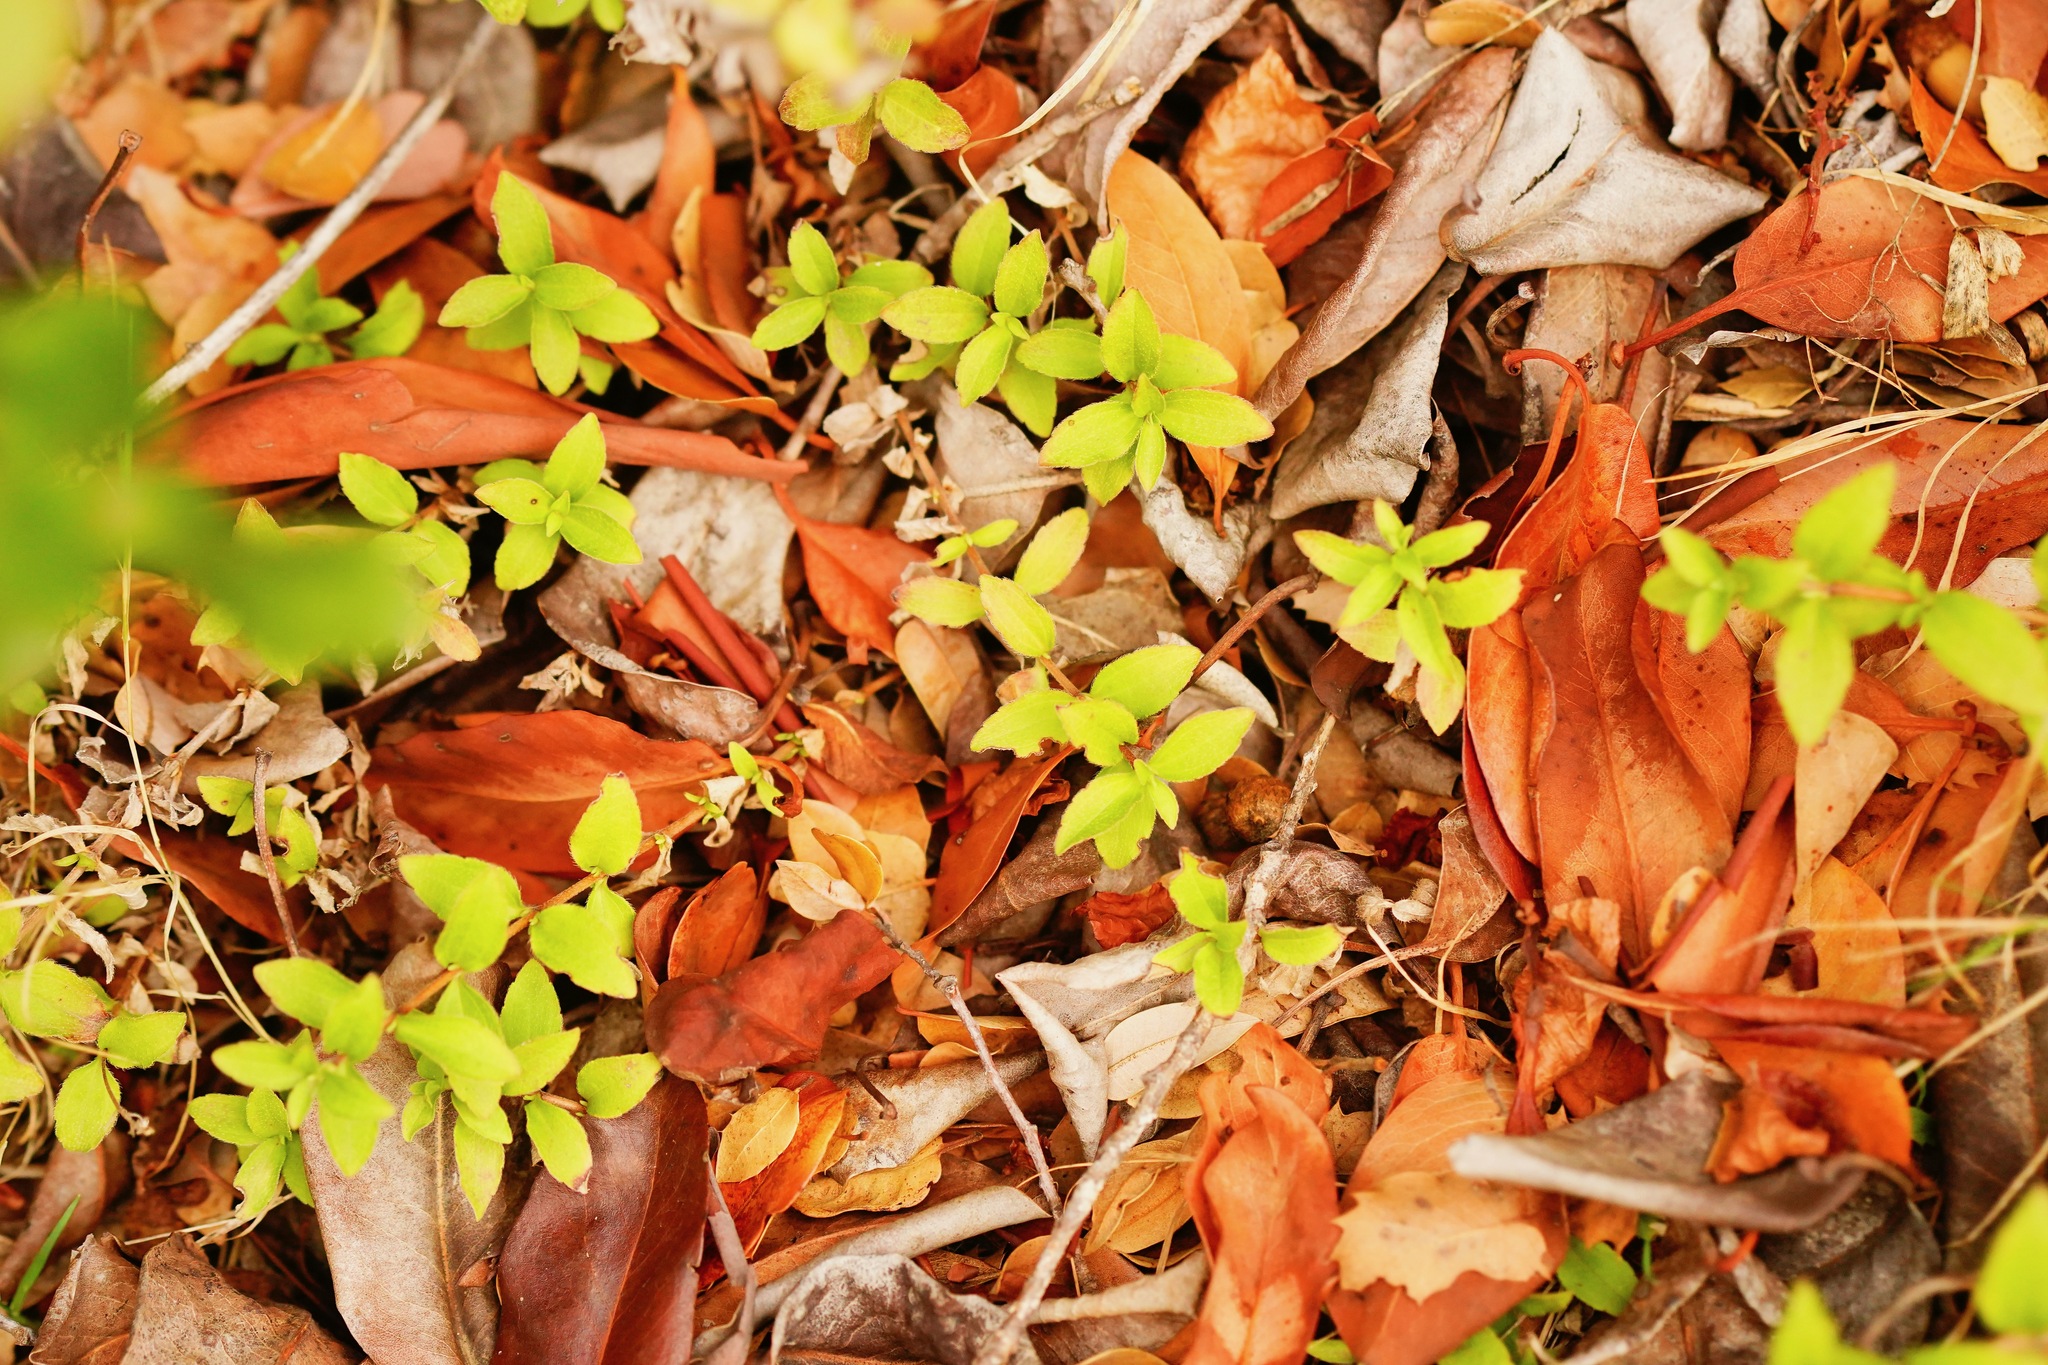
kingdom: Plantae
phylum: Tracheophyta
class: Magnoliopsida
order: Cornales
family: Hydrangeaceae
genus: Whipplea
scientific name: Whipplea modesta
